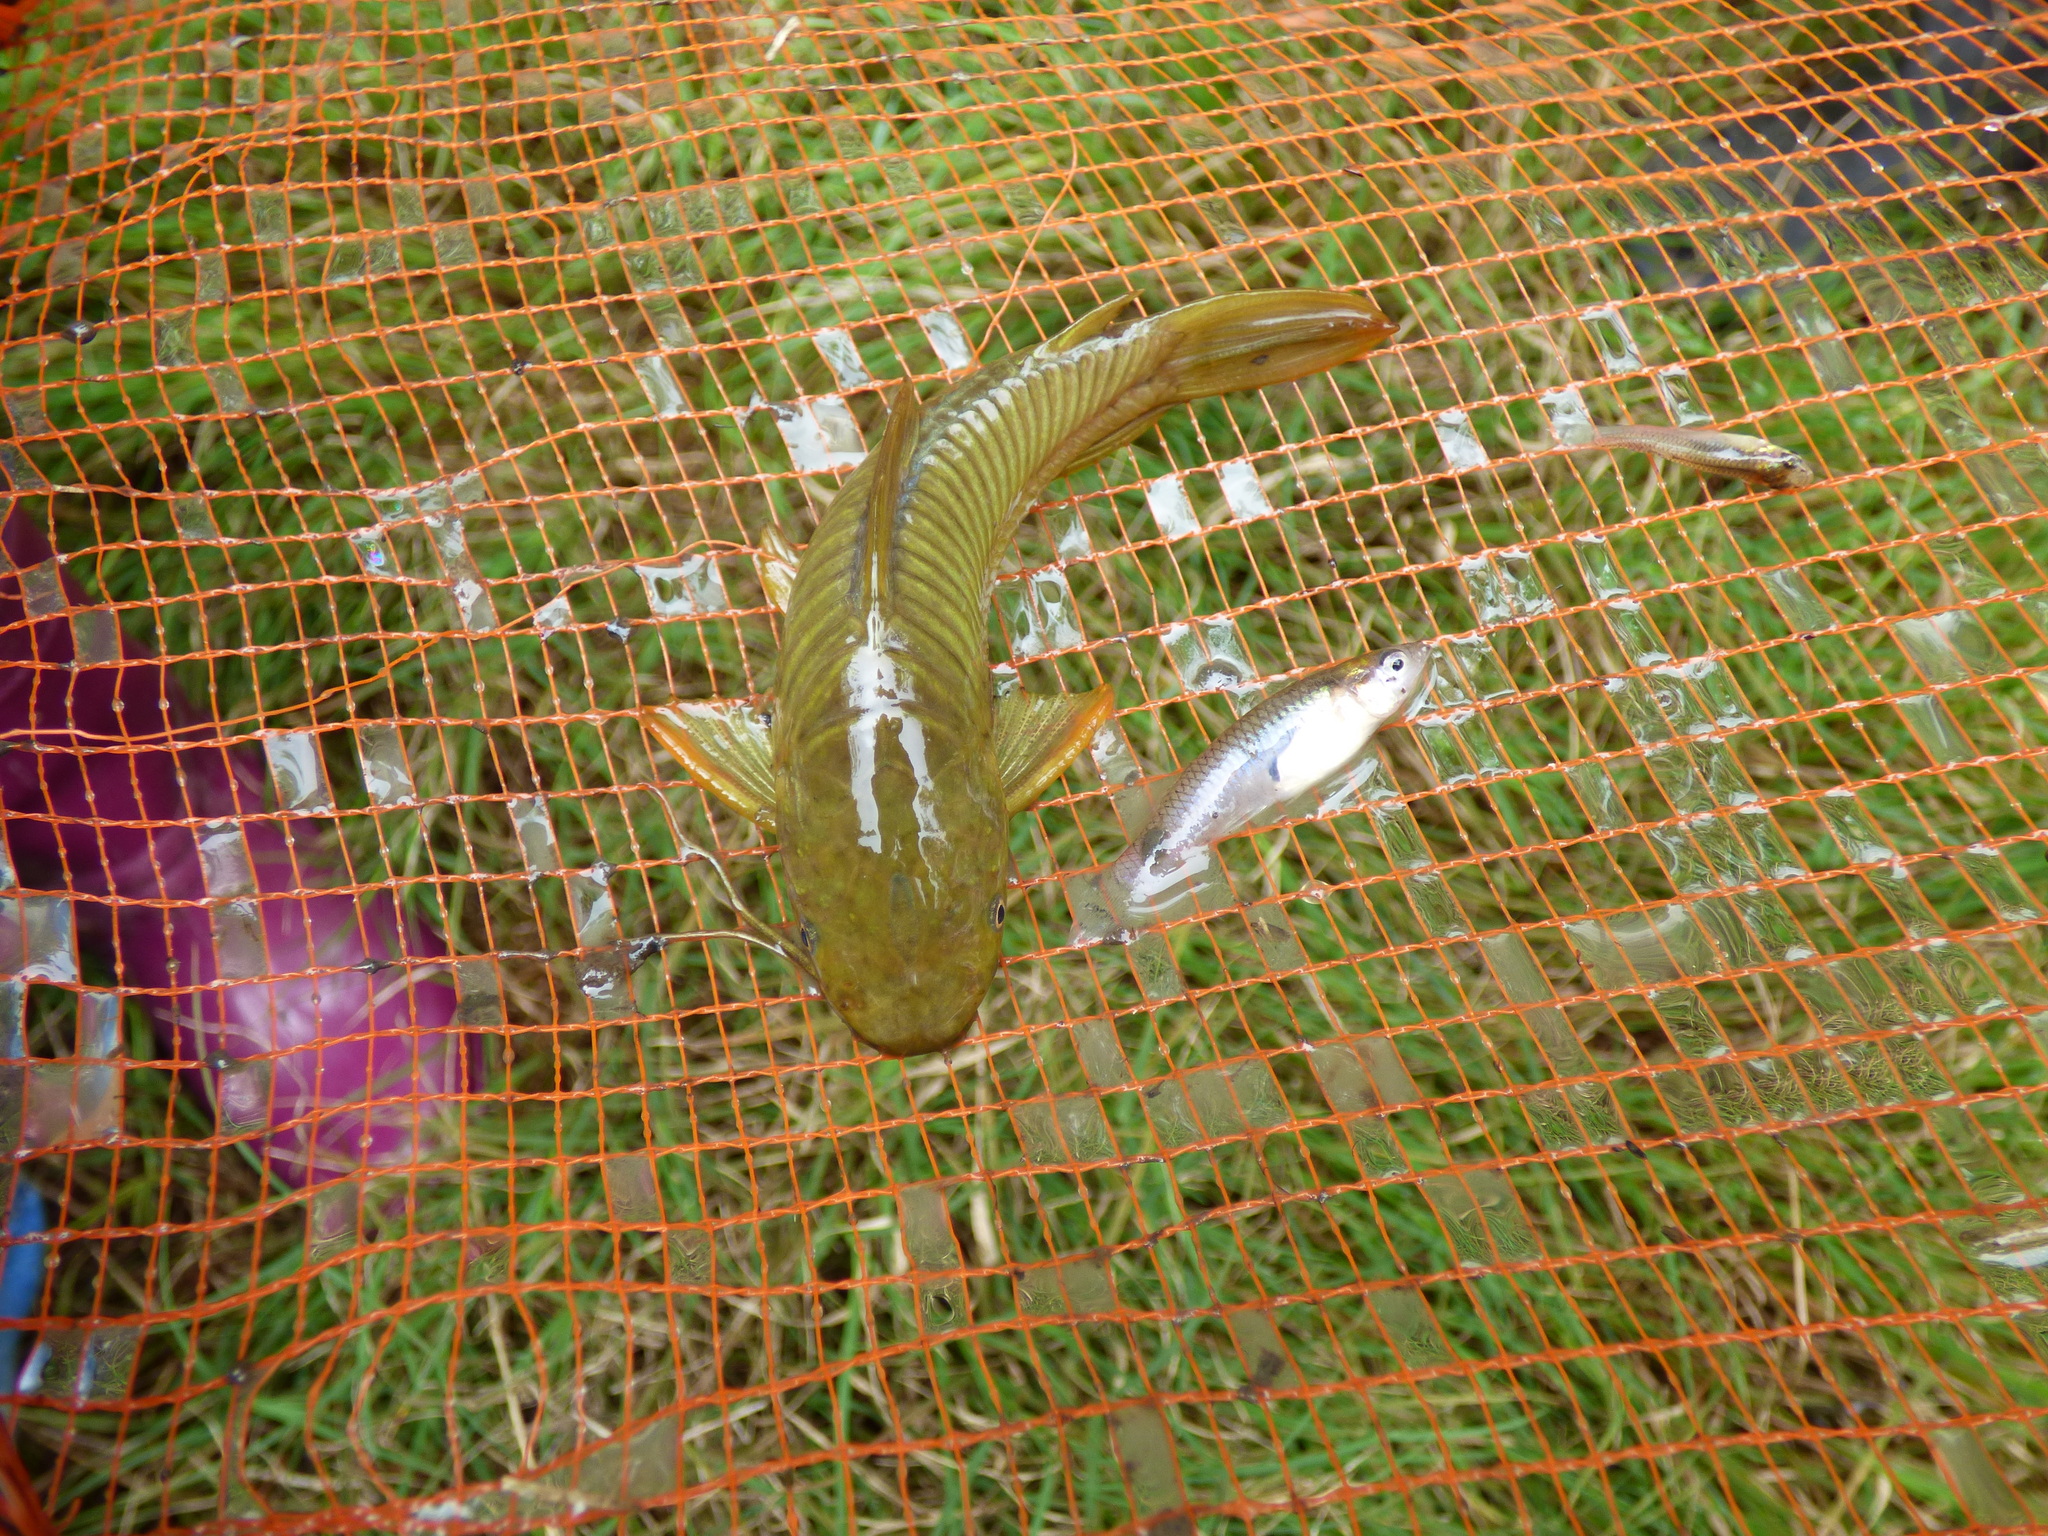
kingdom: Animalia
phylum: Chordata
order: Siluriformes
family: Callichthyidae
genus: Hoplosternum
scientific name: Hoplosternum littorale
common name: Brown hoplo
